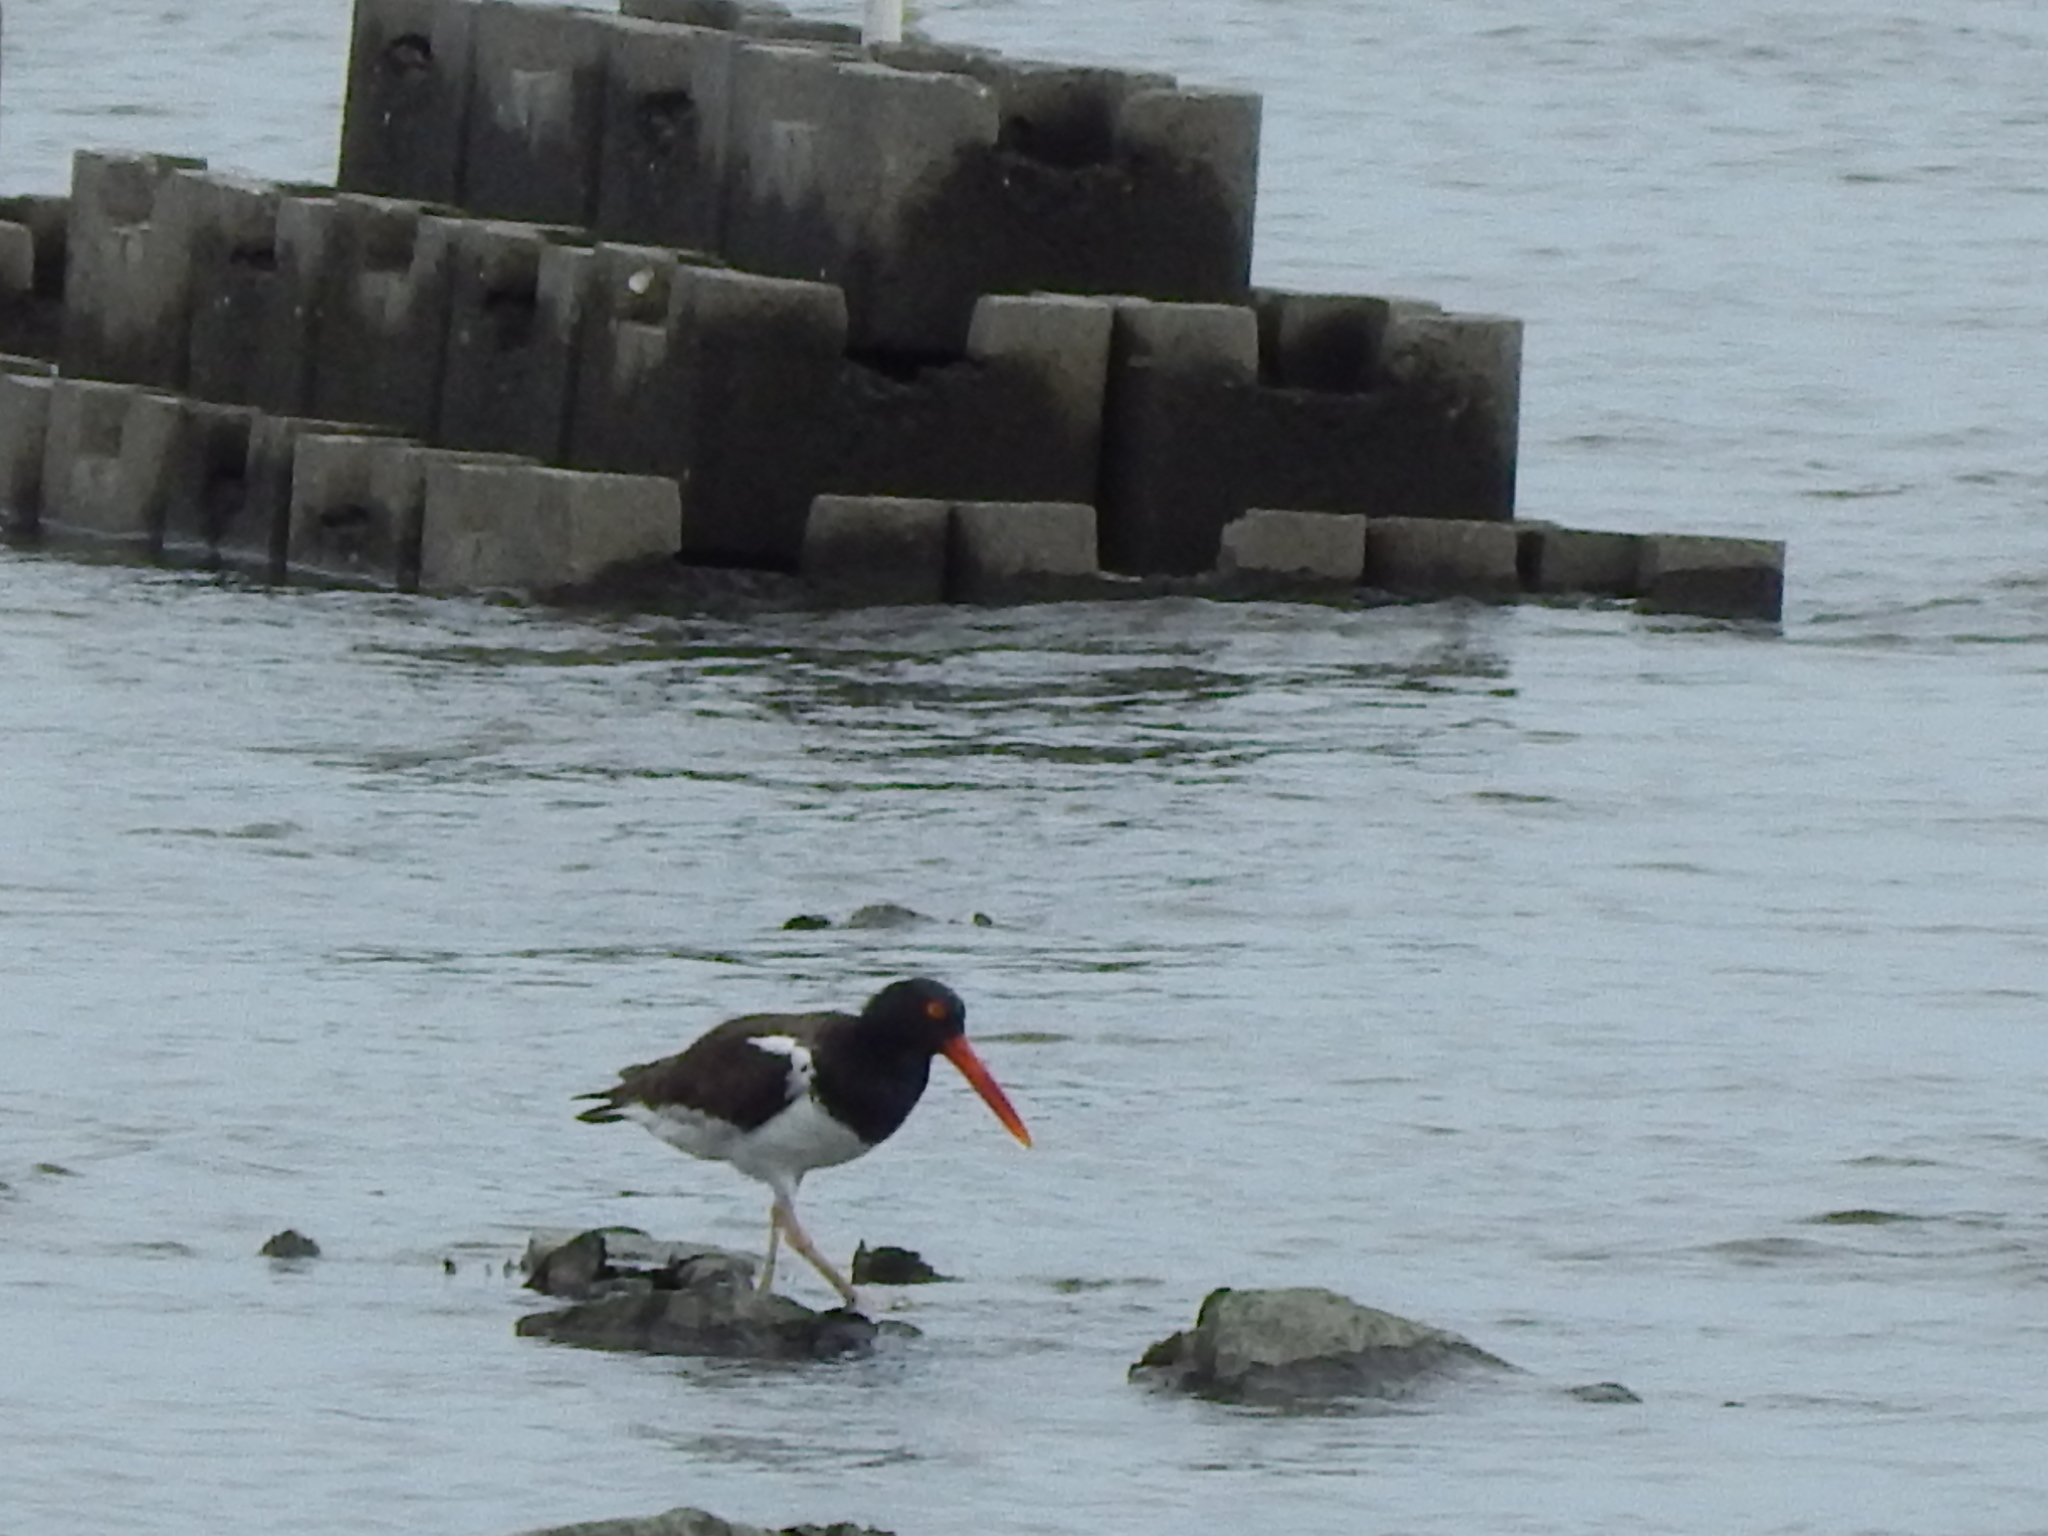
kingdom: Animalia
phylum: Chordata
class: Aves
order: Charadriiformes
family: Haematopodidae
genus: Haematopus
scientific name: Haematopus palliatus
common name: American oystercatcher
